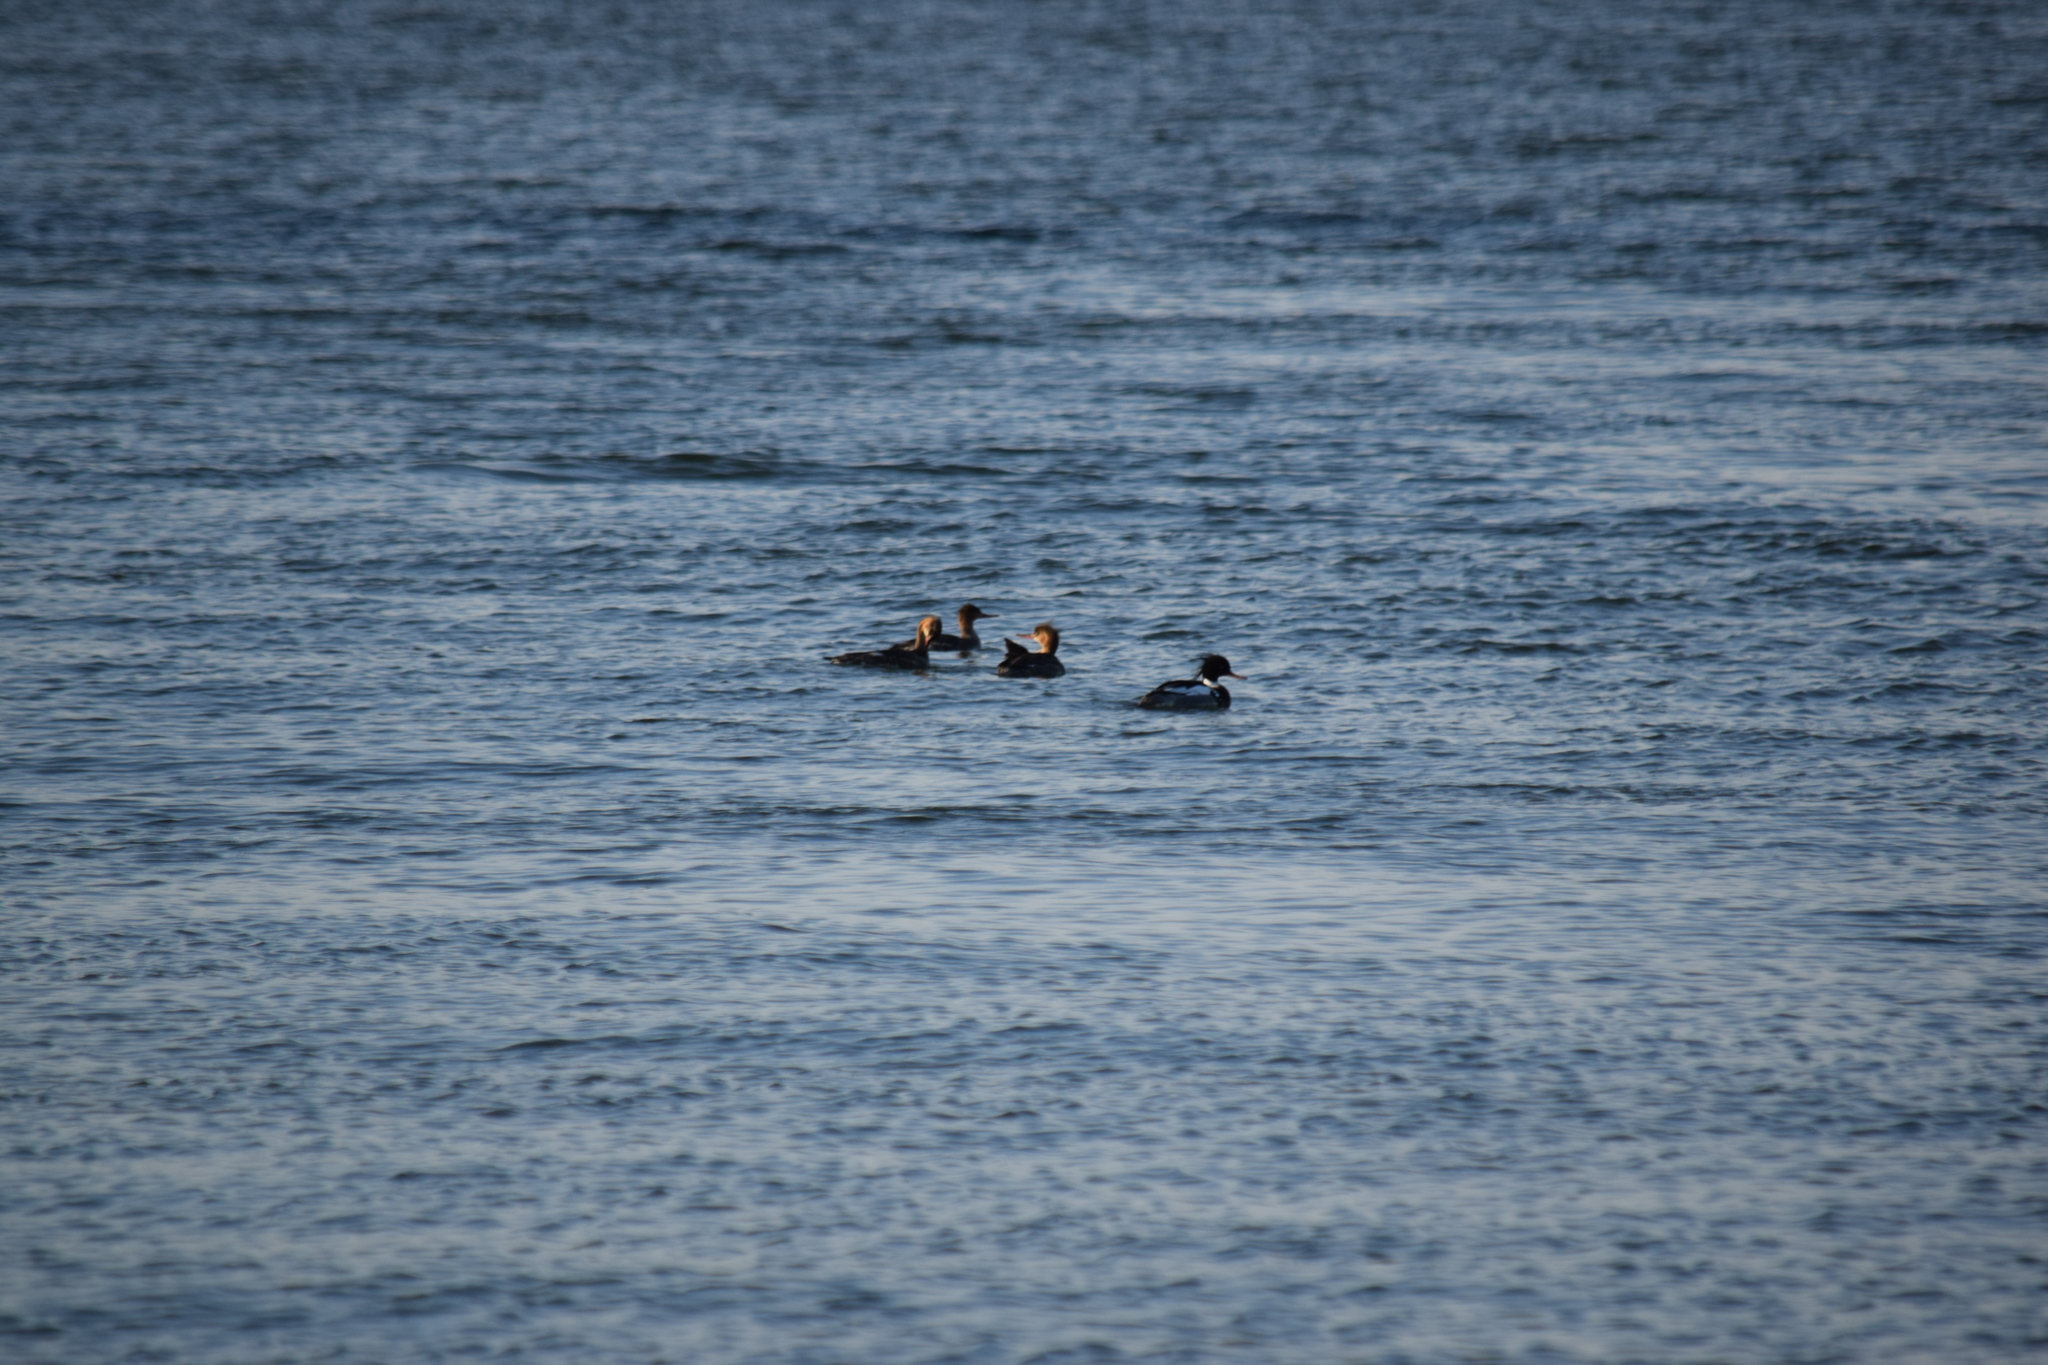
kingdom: Animalia
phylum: Chordata
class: Aves
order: Anseriformes
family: Anatidae
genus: Mergus
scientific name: Mergus serrator
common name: Red-breasted merganser
